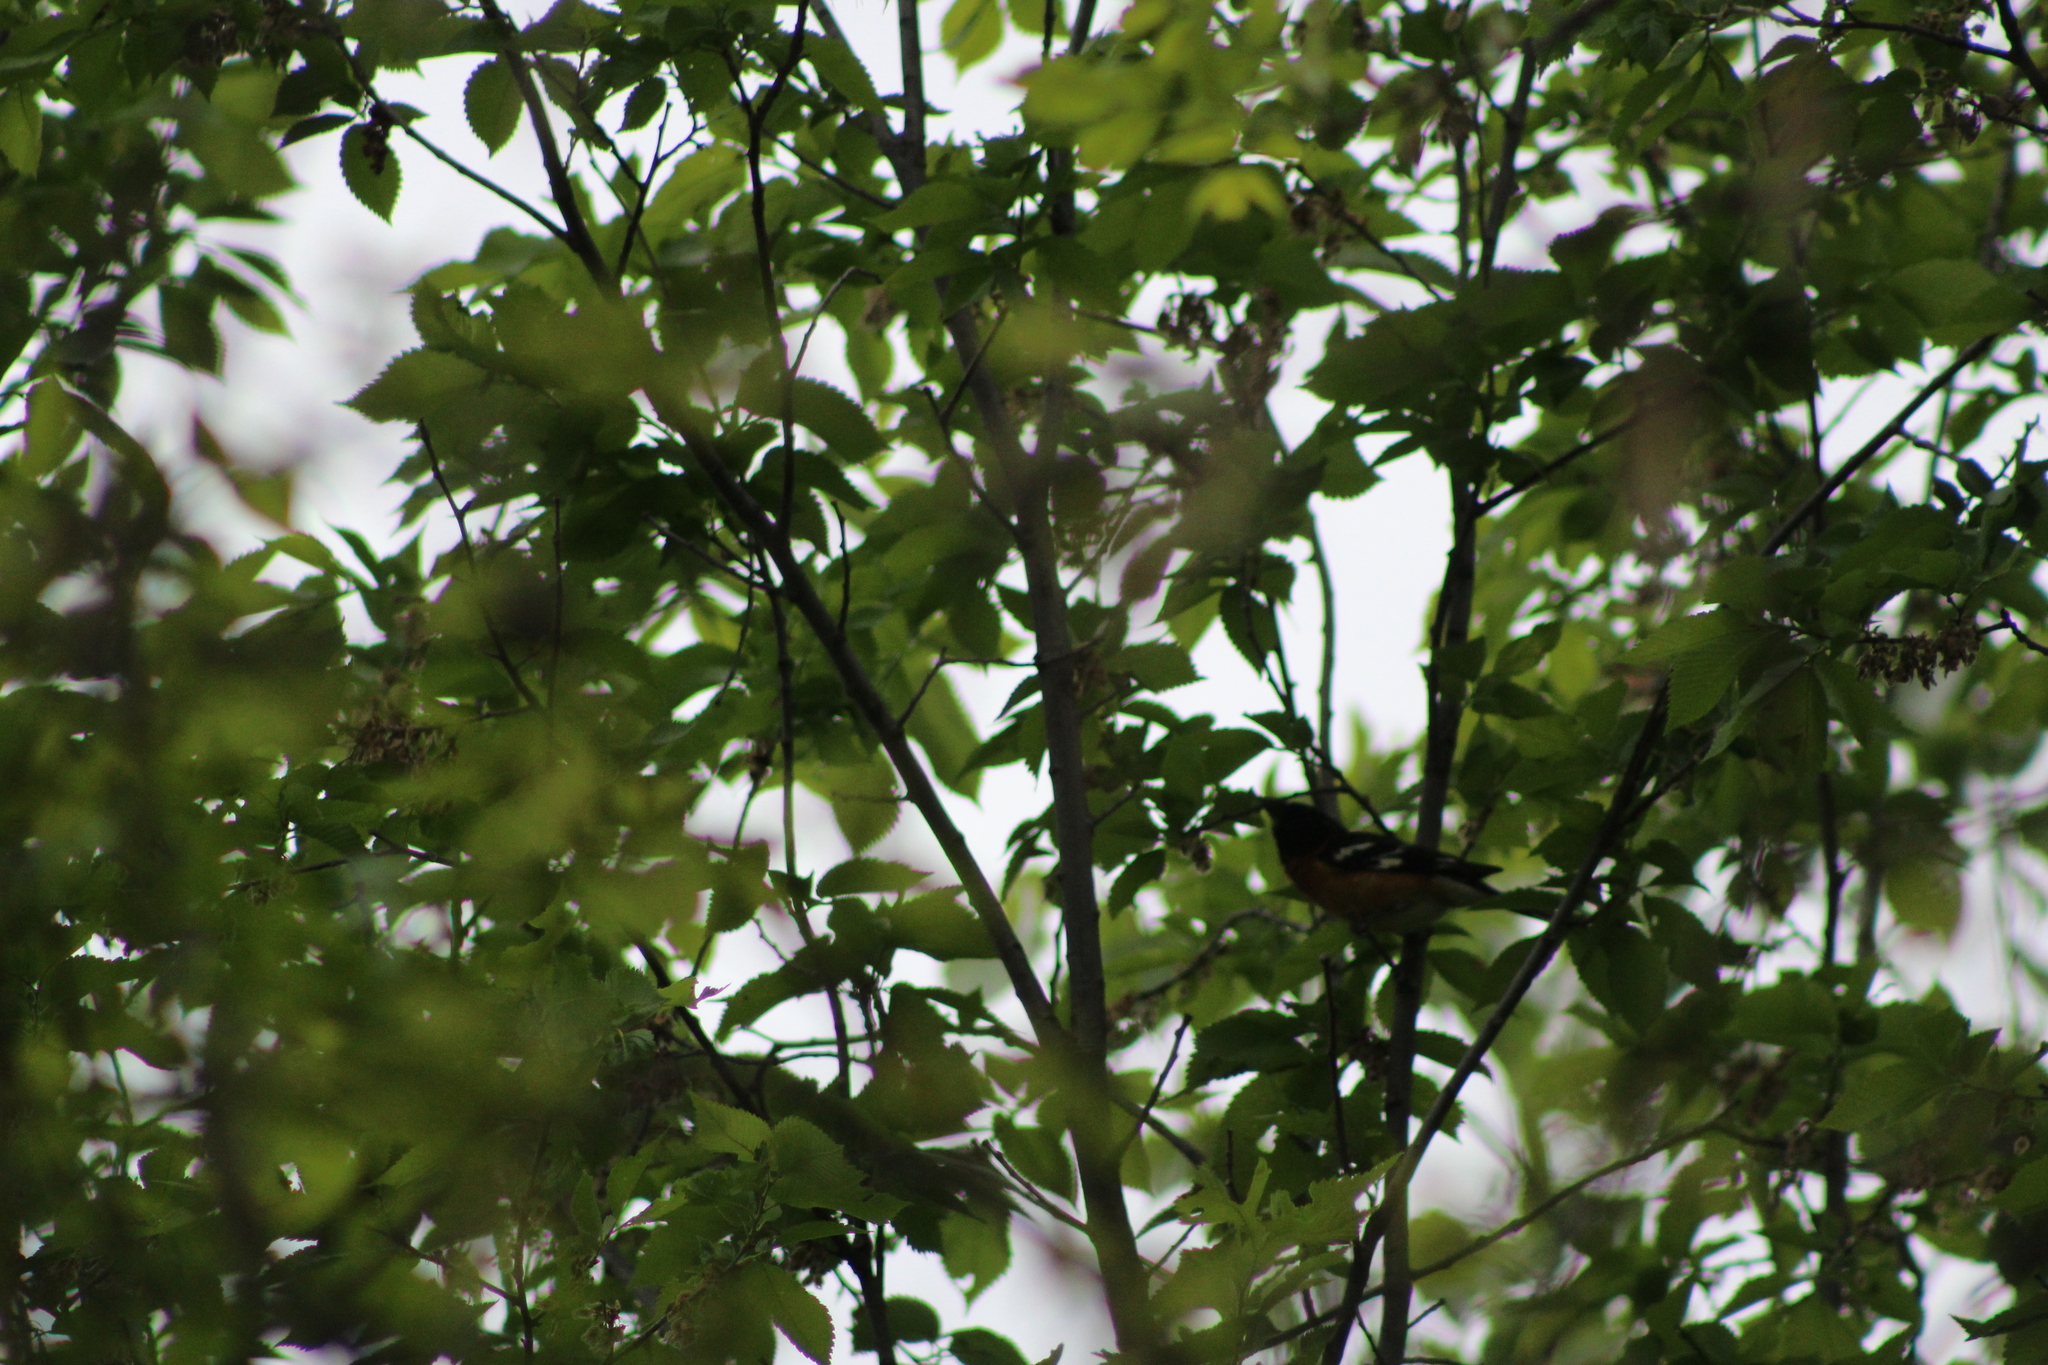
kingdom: Animalia
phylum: Chordata
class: Aves
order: Passeriformes
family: Cardinalidae
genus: Pheucticus
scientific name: Pheucticus melanocephalus
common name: Black-headed grosbeak
